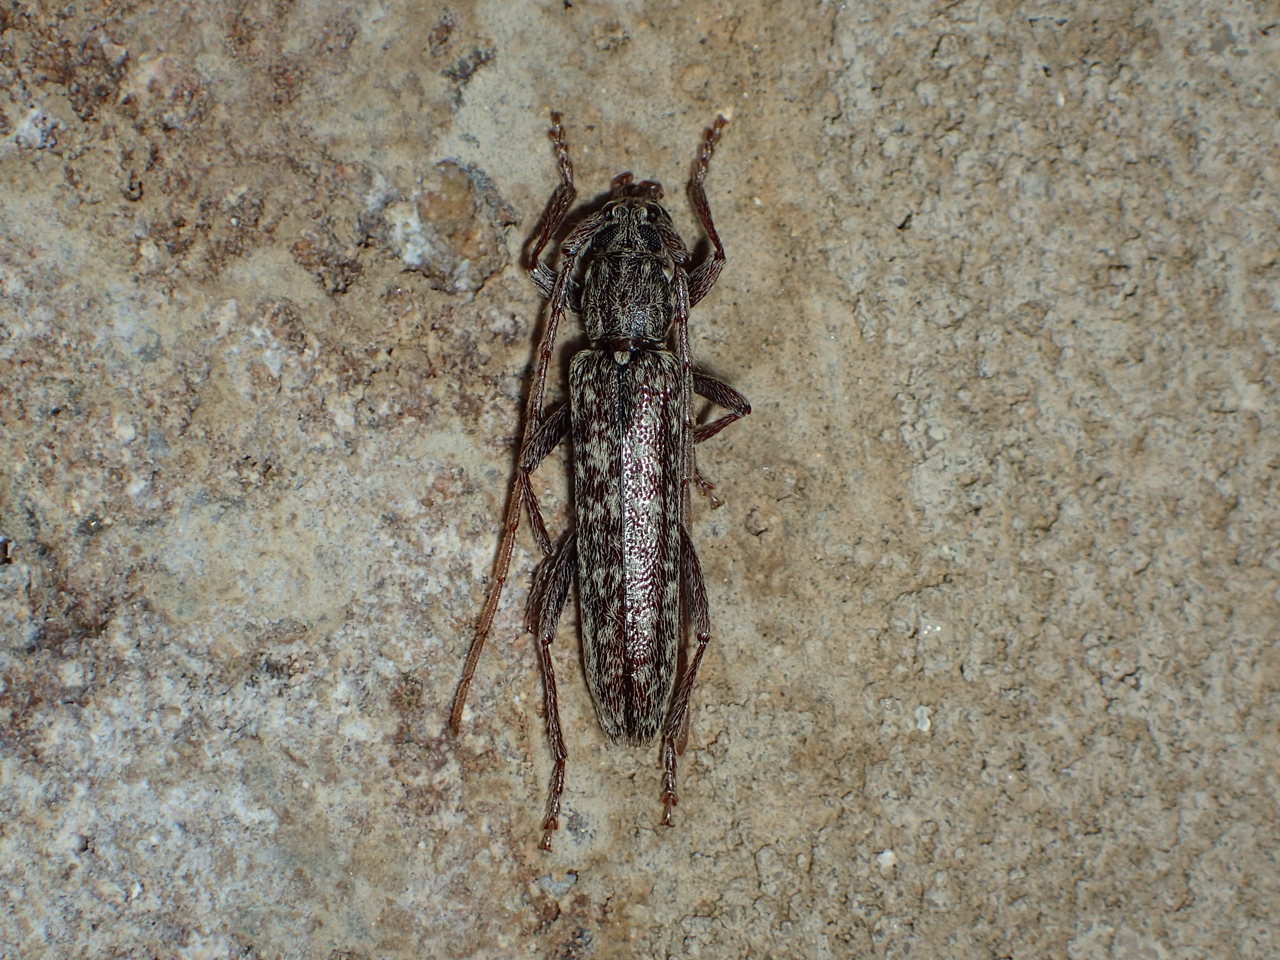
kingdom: Animalia
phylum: Arthropoda
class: Insecta
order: Coleoptera
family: Cerambycidae
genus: Anelaphus
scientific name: Anelaphus villosus
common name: Twig pruner
